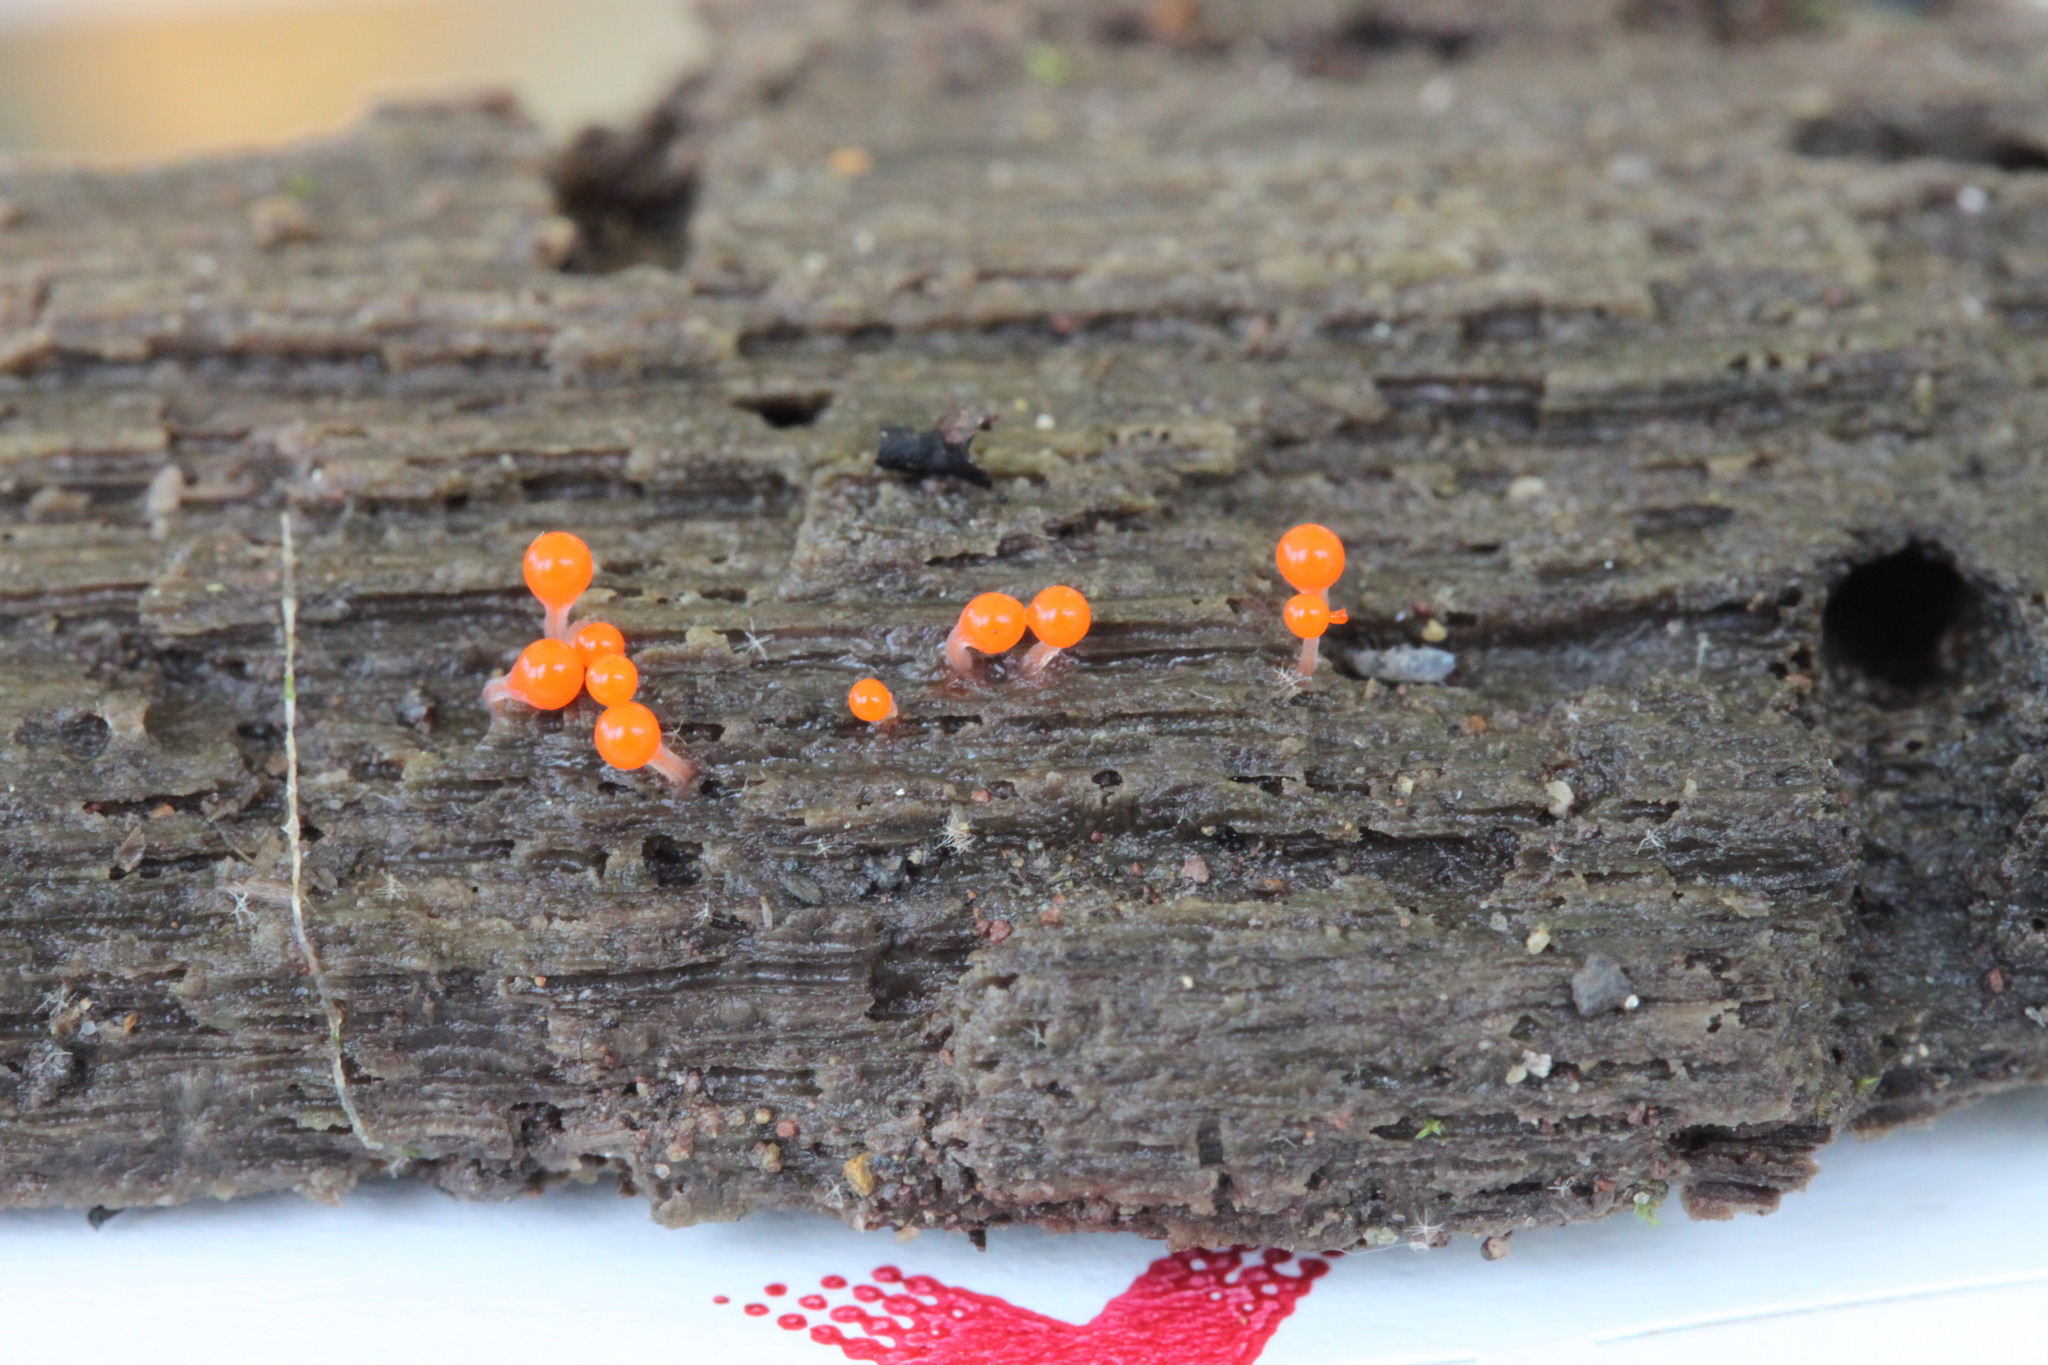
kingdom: Protozoa
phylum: Mycetozoa
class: Myxomycetes
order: Trichiales
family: Arcyriaceae
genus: Hemitrichia
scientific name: Hemitrichia calyculata
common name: Push pin slime mold
